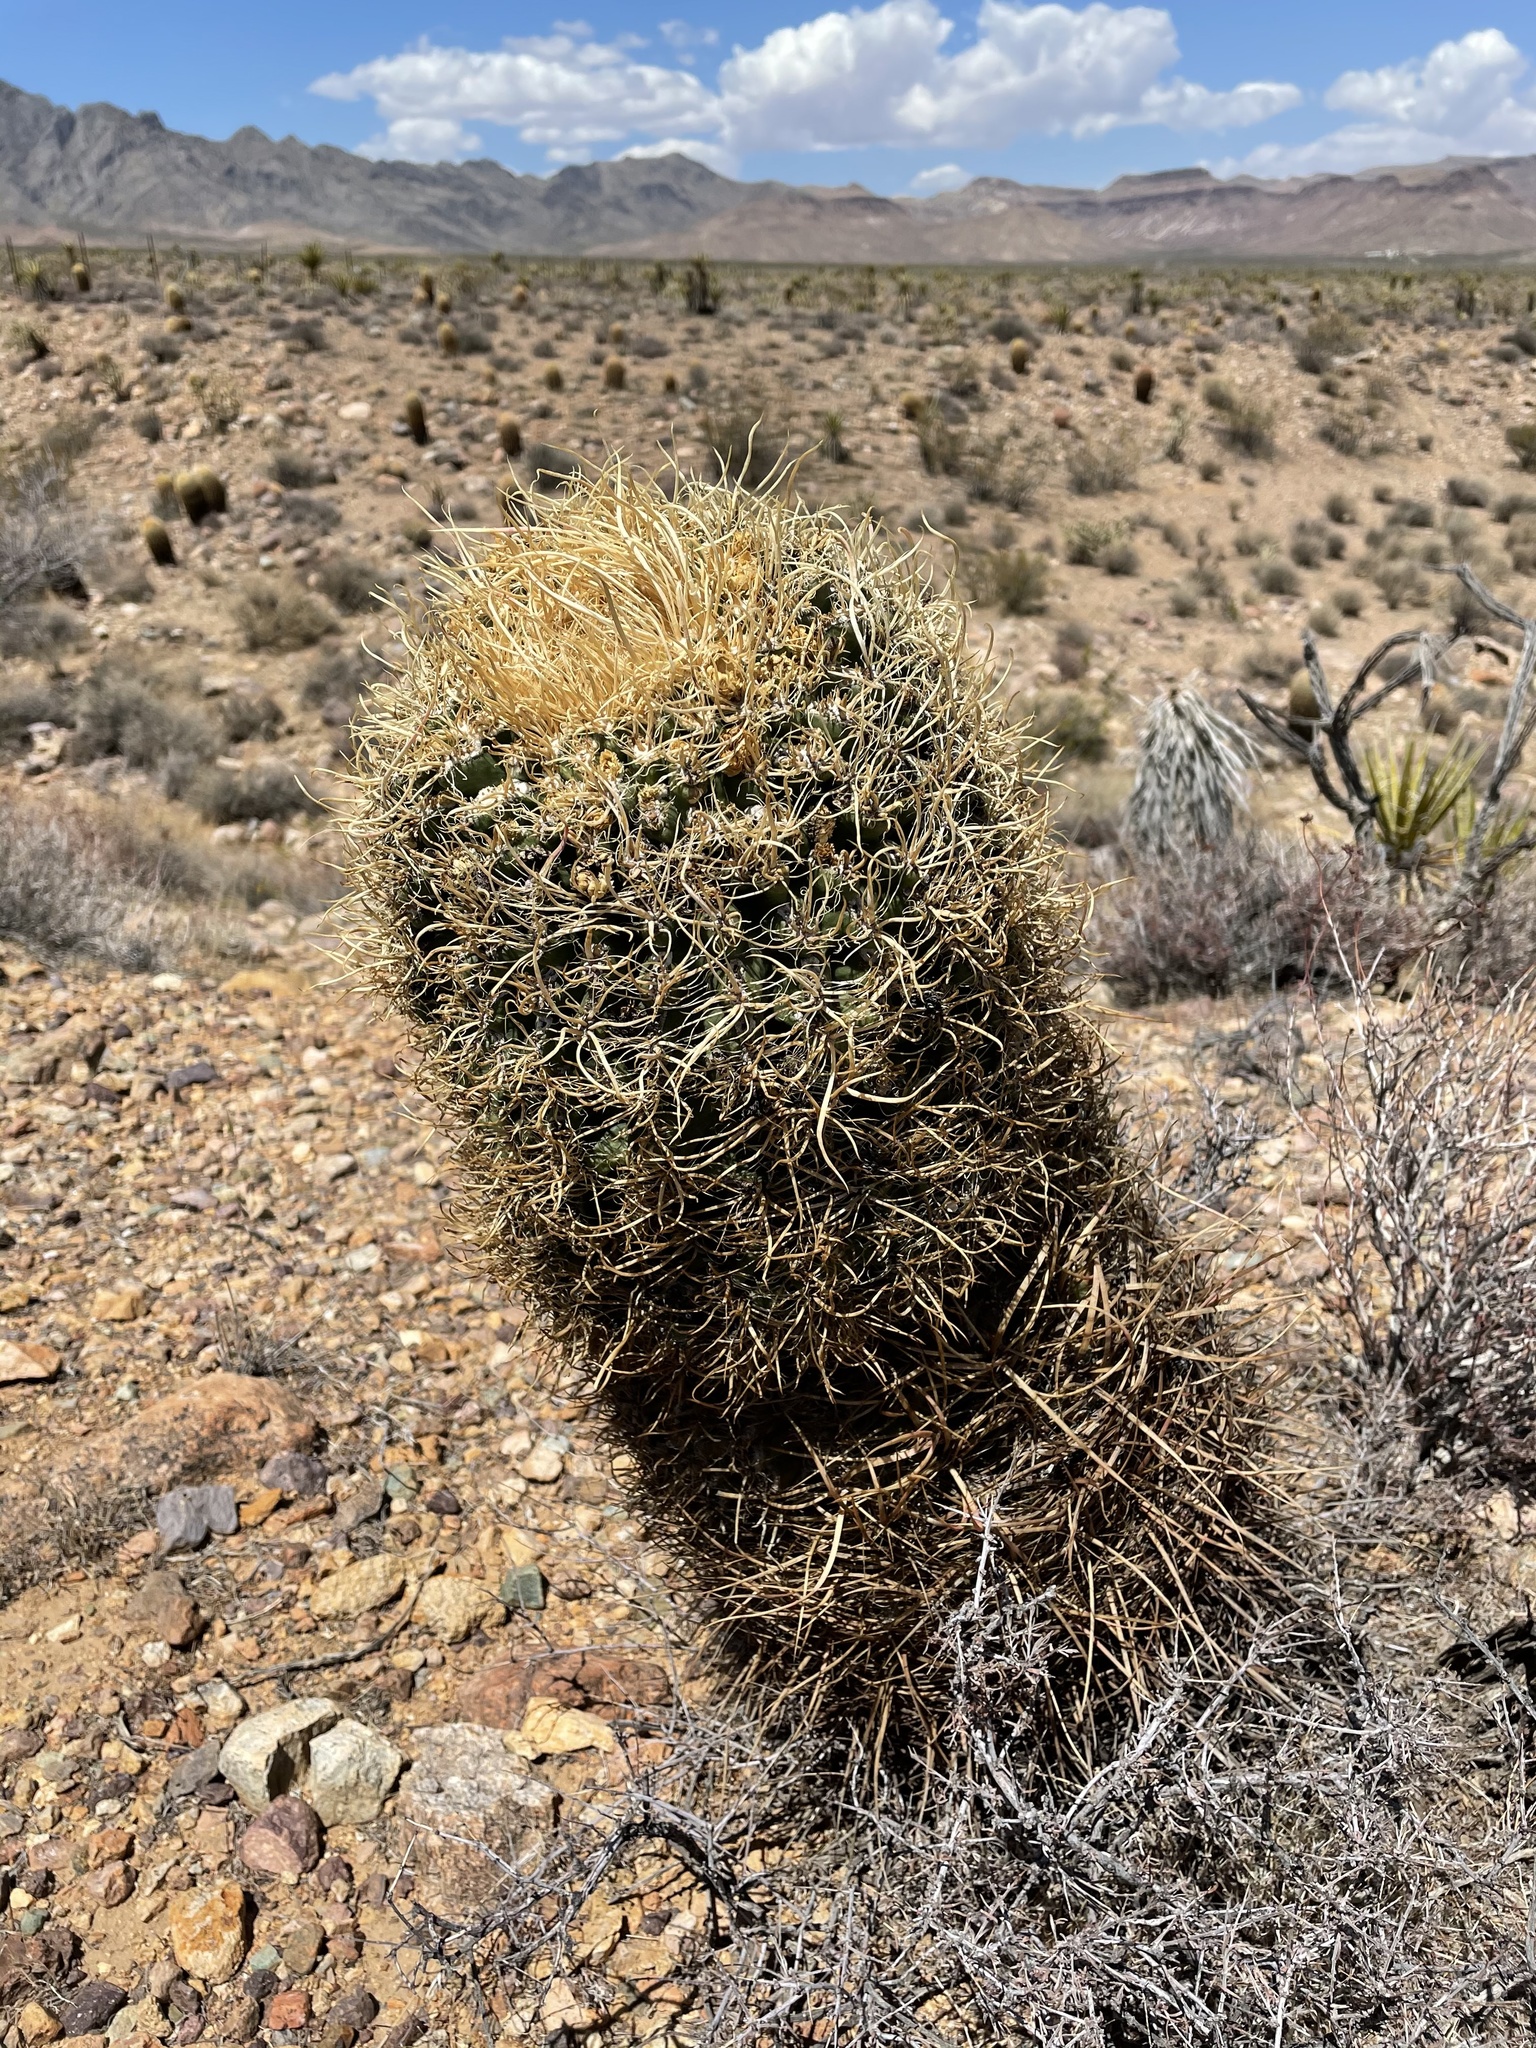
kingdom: Plantae
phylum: Tracheophyta
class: Magnoliopsida
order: Caryophyllales
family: Cactaceae
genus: Ferocactus
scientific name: Ferocactus cylindraceus
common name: California barrel cactus
